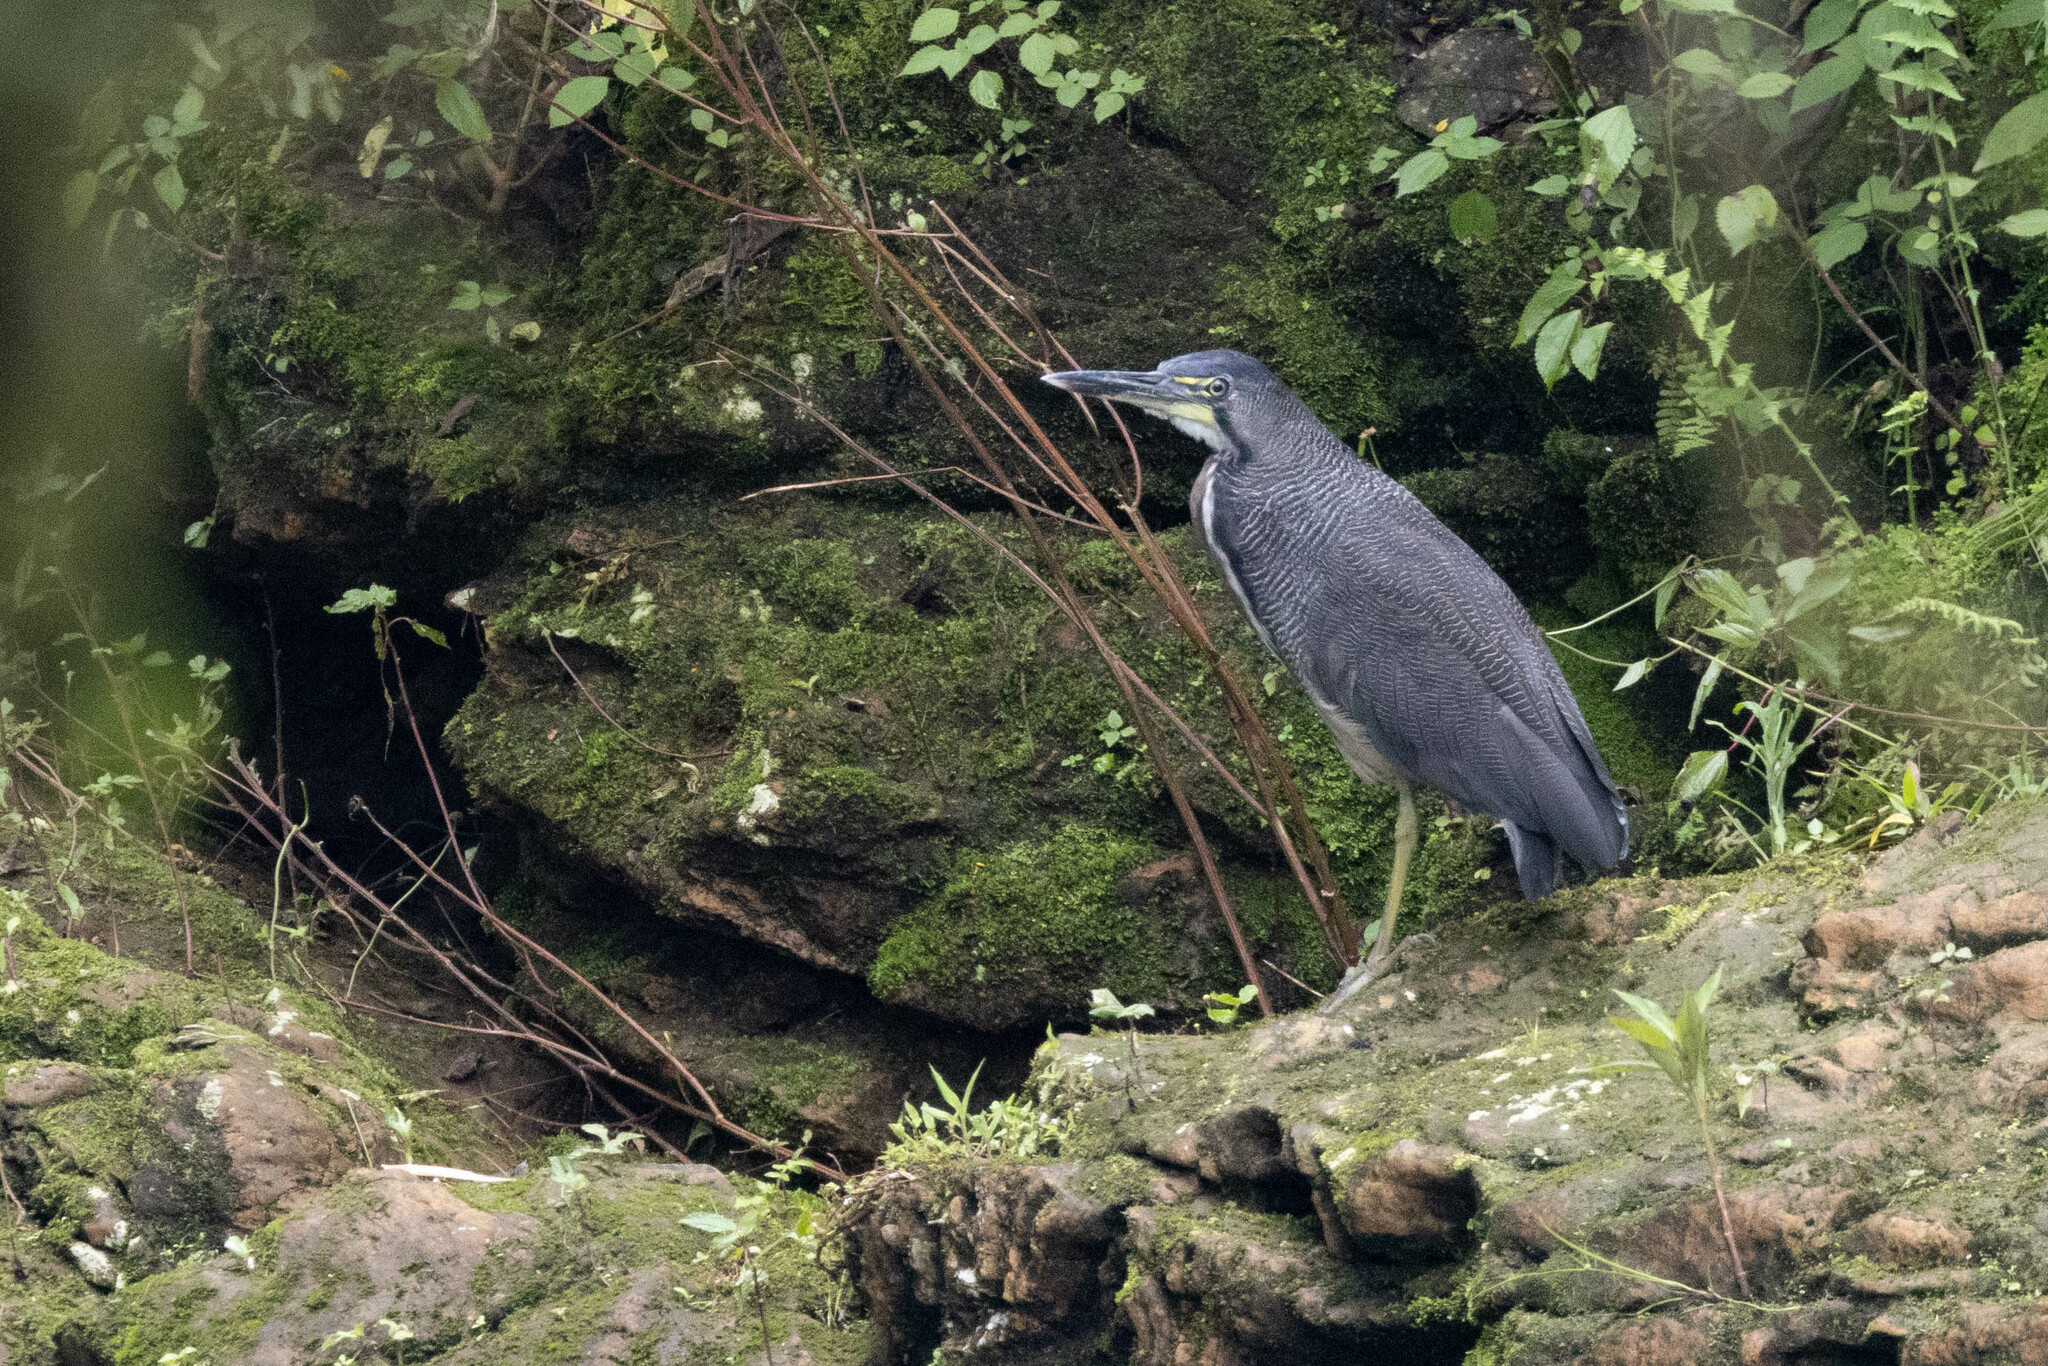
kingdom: Animalia
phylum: Chordata
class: Aves
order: Pelecaniformes
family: Ardeidae
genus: Tigrisoma
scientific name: Tigrisoma fasciatum
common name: Fasciated tiger-heron
